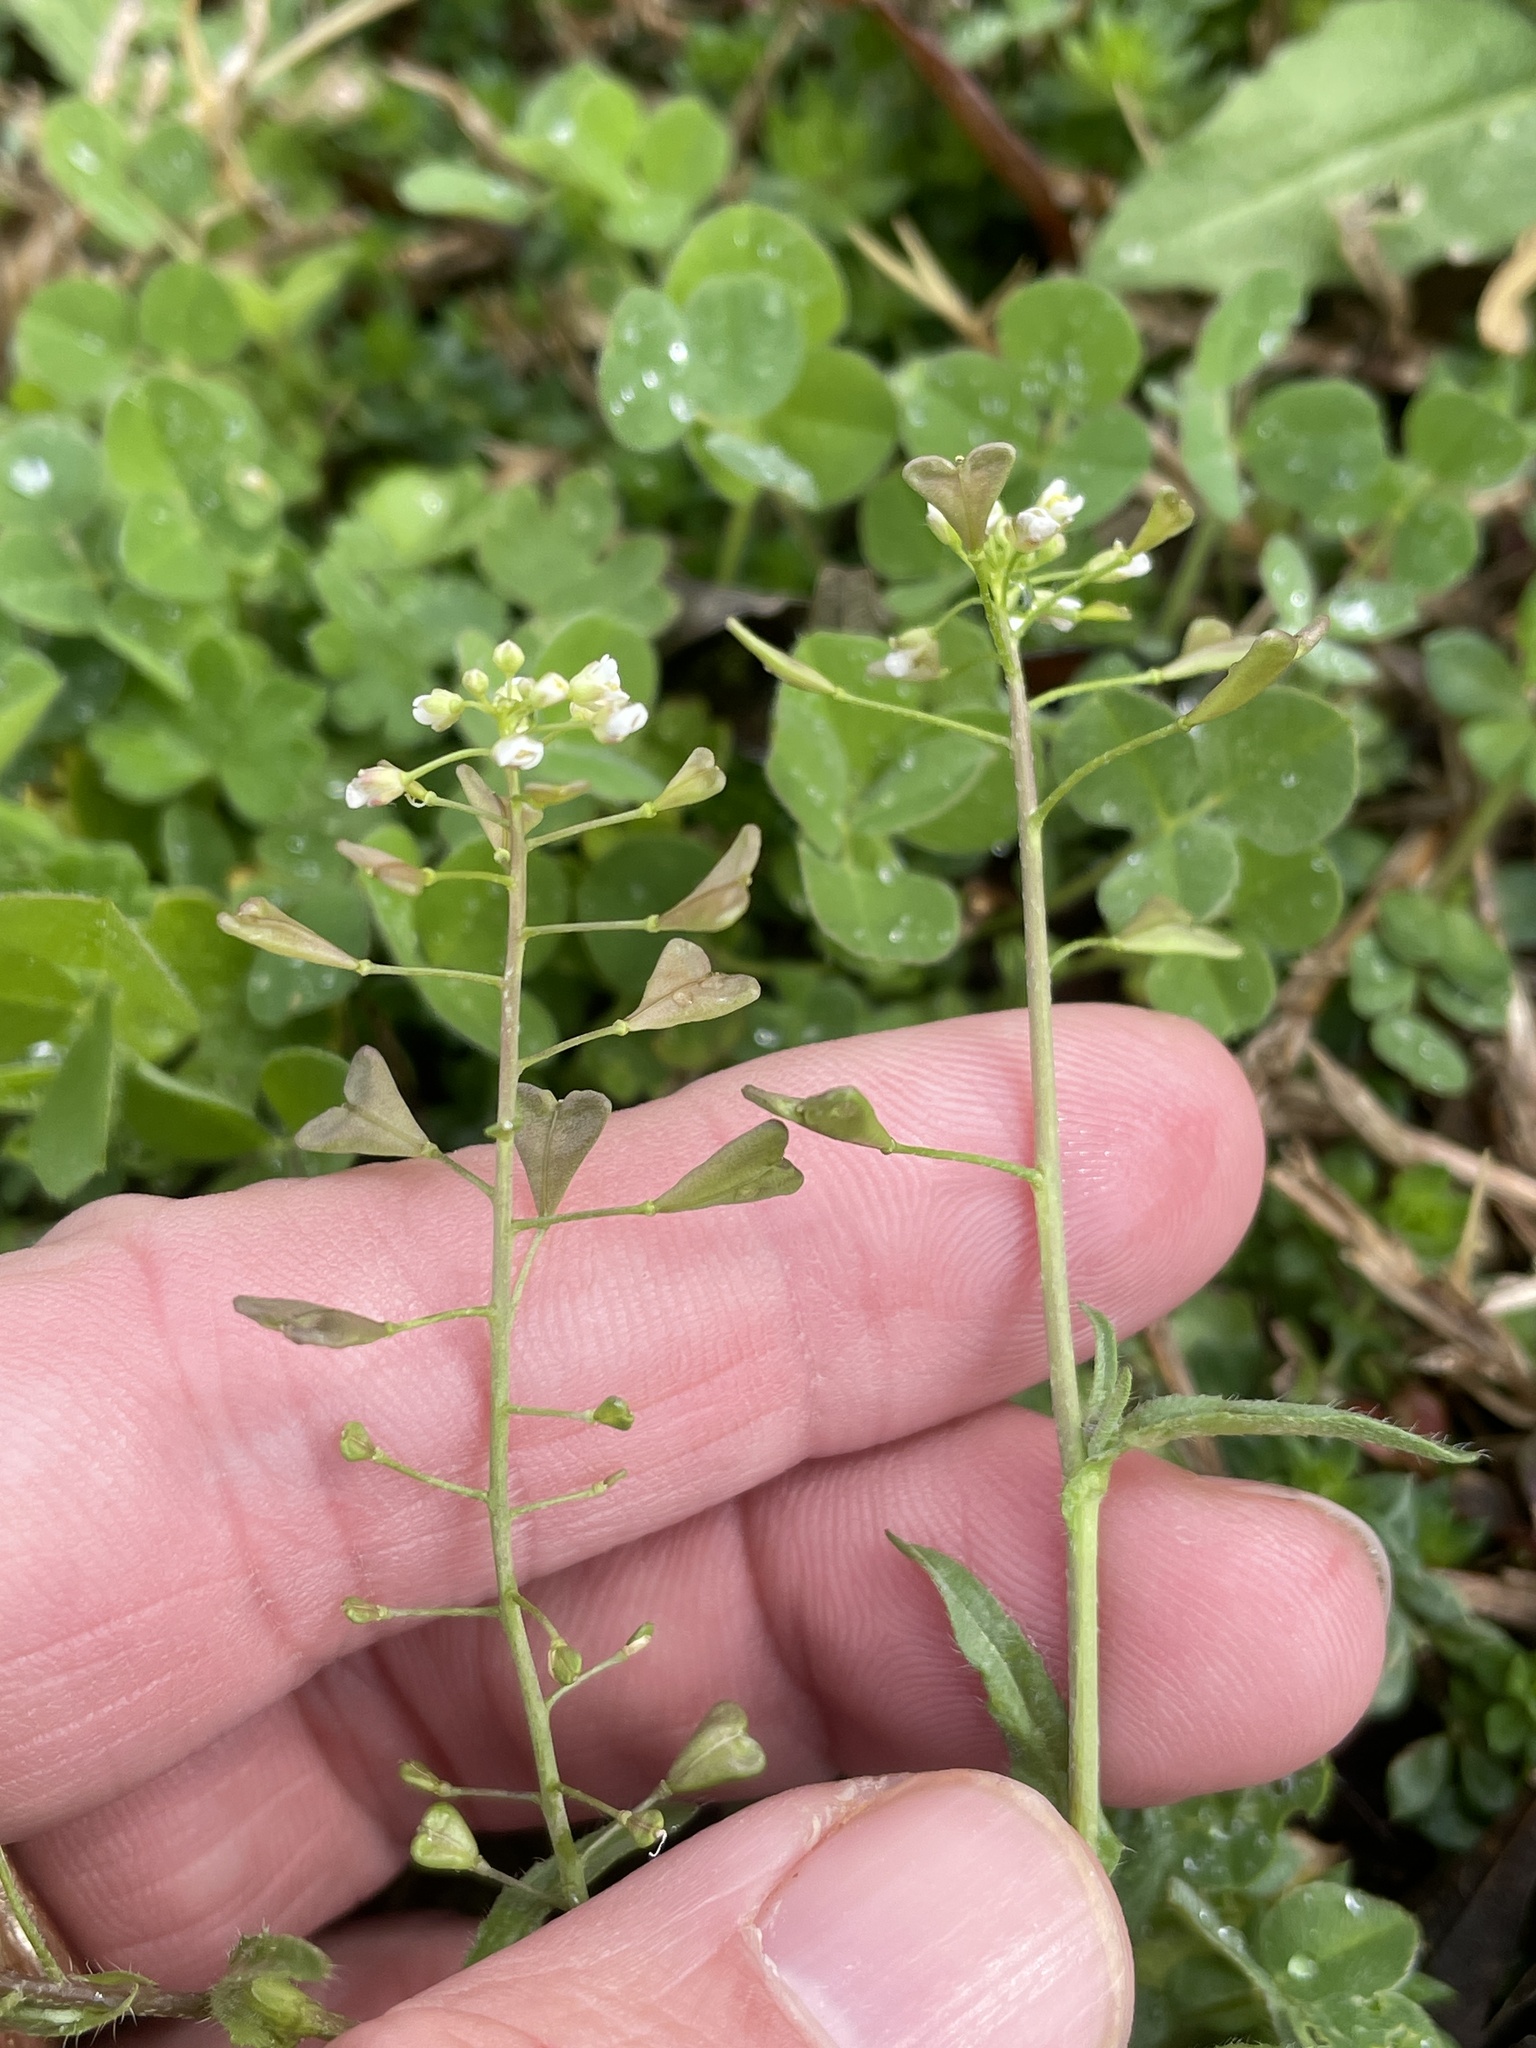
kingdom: Plantae
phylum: Tracheophyta
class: Magnoliopsida
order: Brassicales
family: Brassicaceae
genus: Capsella
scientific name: Capsella bursa-pastoris
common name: Shepherd's purse
